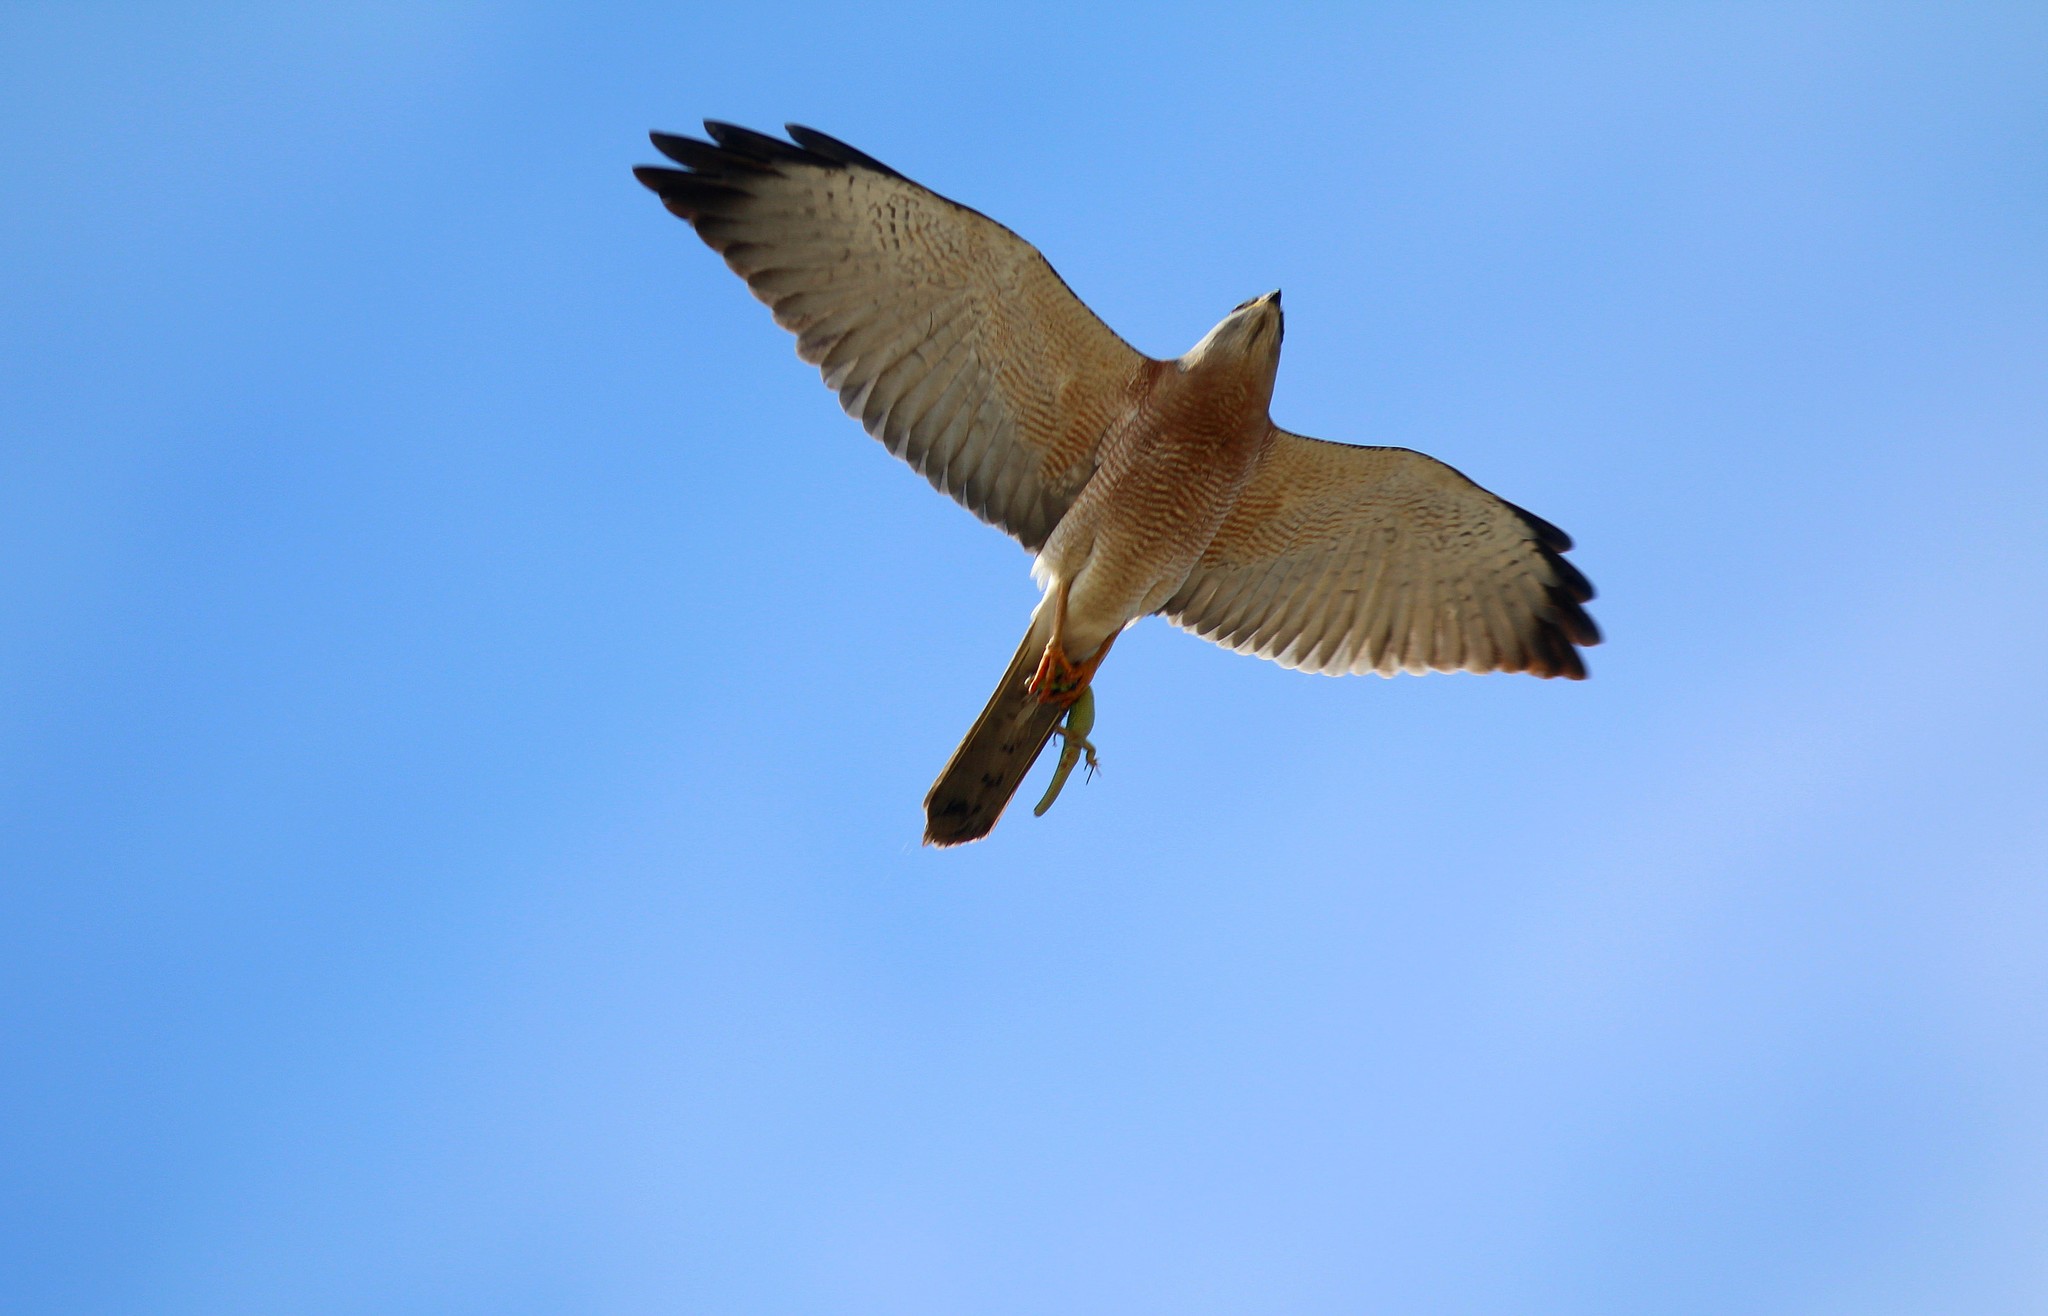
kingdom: Animalia
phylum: Chordata
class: Aves
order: Accipitriformes
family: Accipitridae
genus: Accipiter
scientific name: Accipiter brevipes
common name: Levant sparrowhawk
